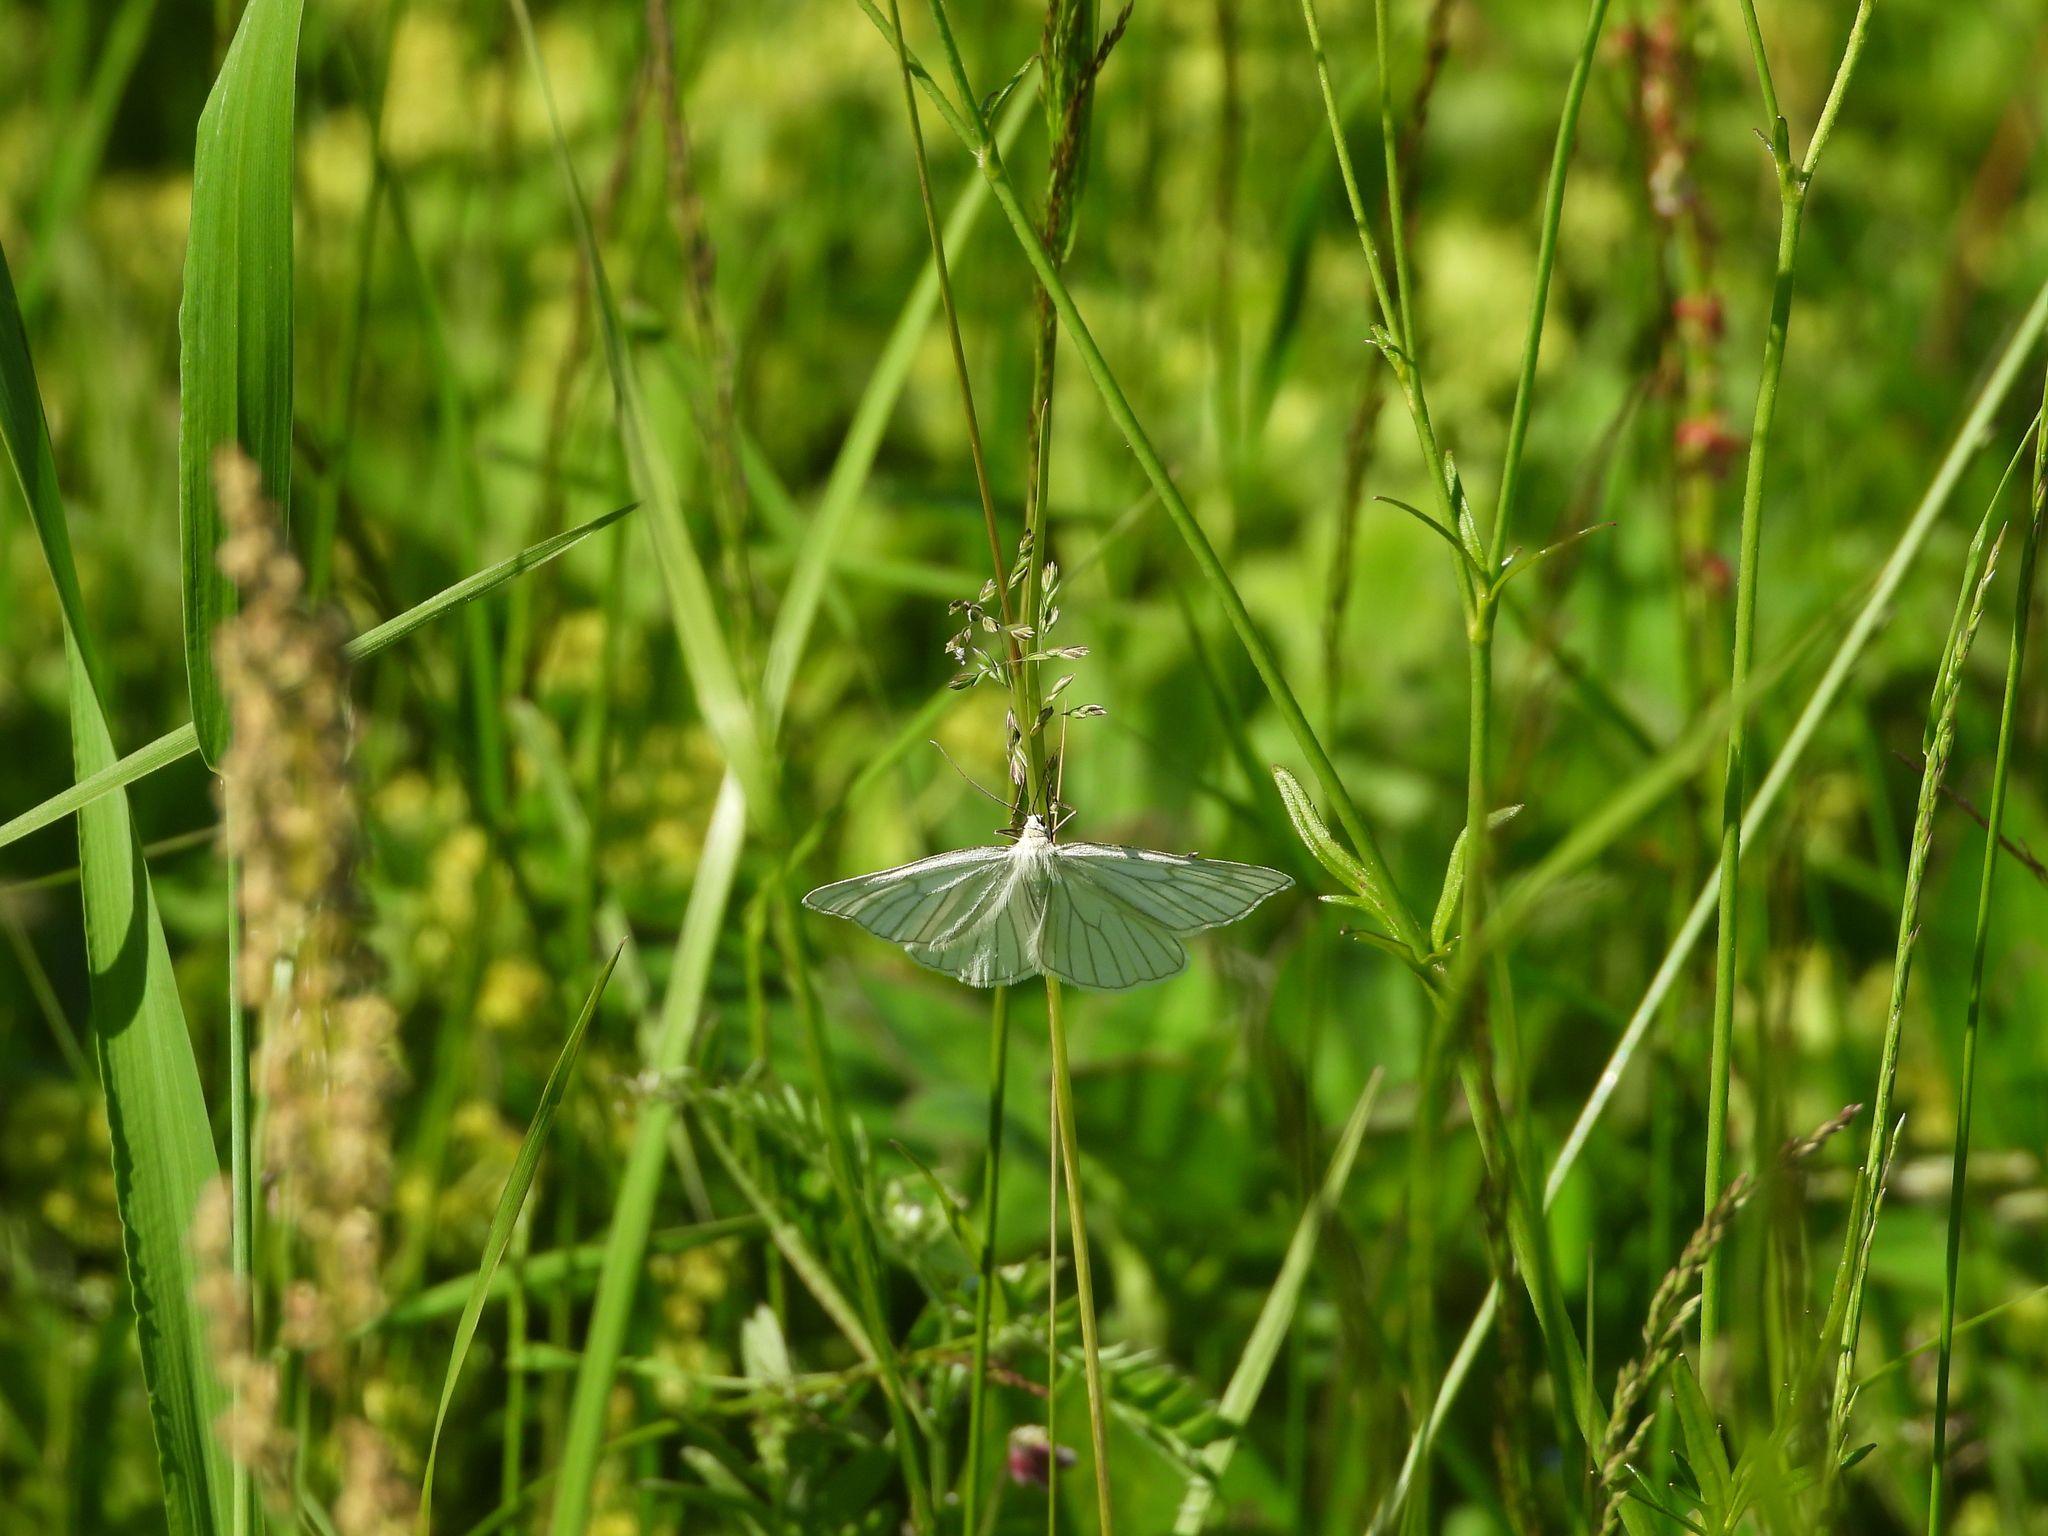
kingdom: Animalia
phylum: Arthropoda
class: Insecta
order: Lepidoptera
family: Geometridae
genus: Siona
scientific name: Siona lineata
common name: Black-veined moth
